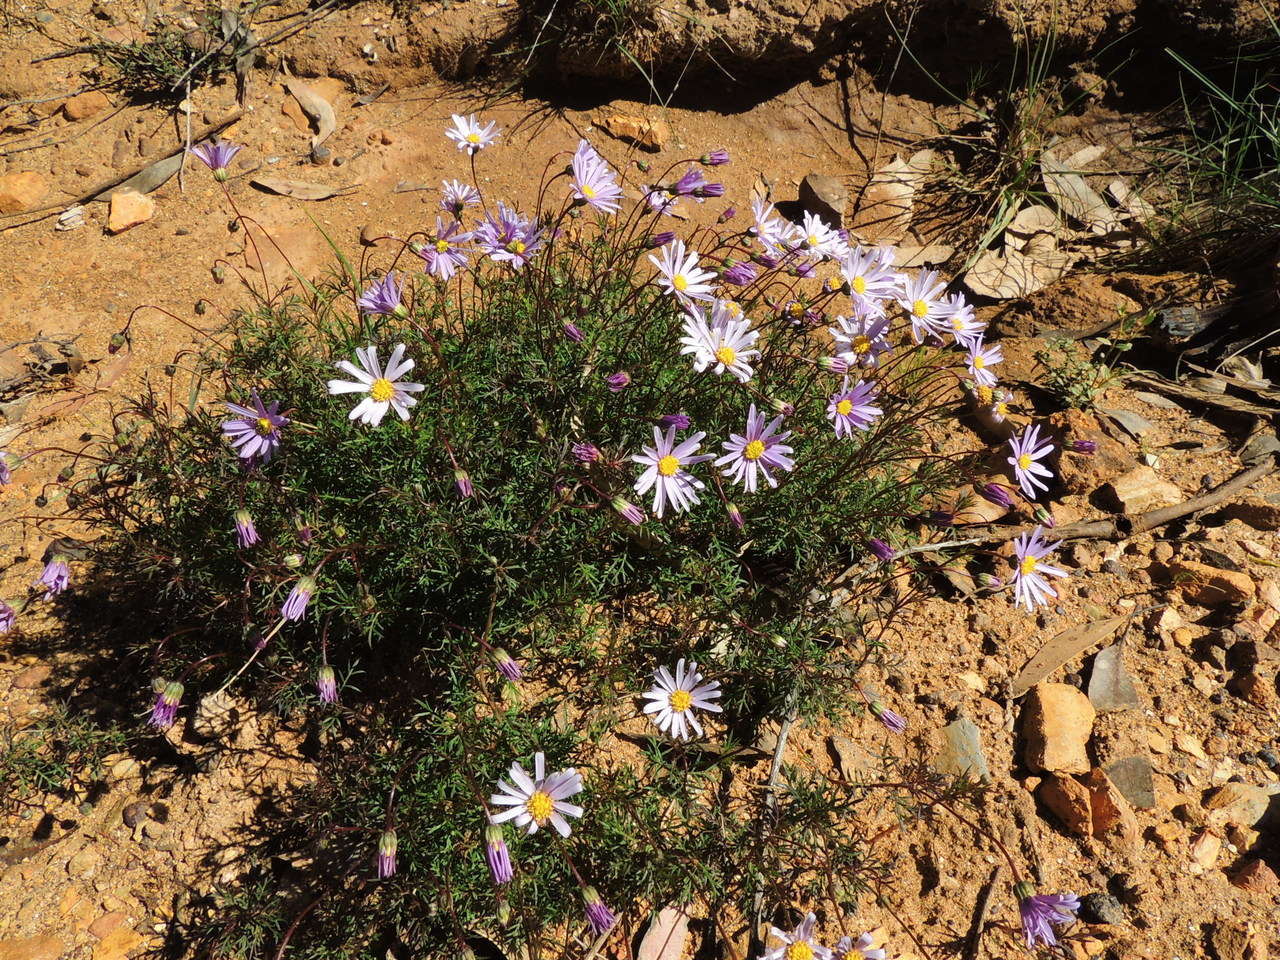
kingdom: Plantae
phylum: Tracheophyta
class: Magnoliopsida
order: Asterales
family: Asteraceae
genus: Brachyscome
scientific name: Brachyscome multifida
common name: Cut-leaf daisy
